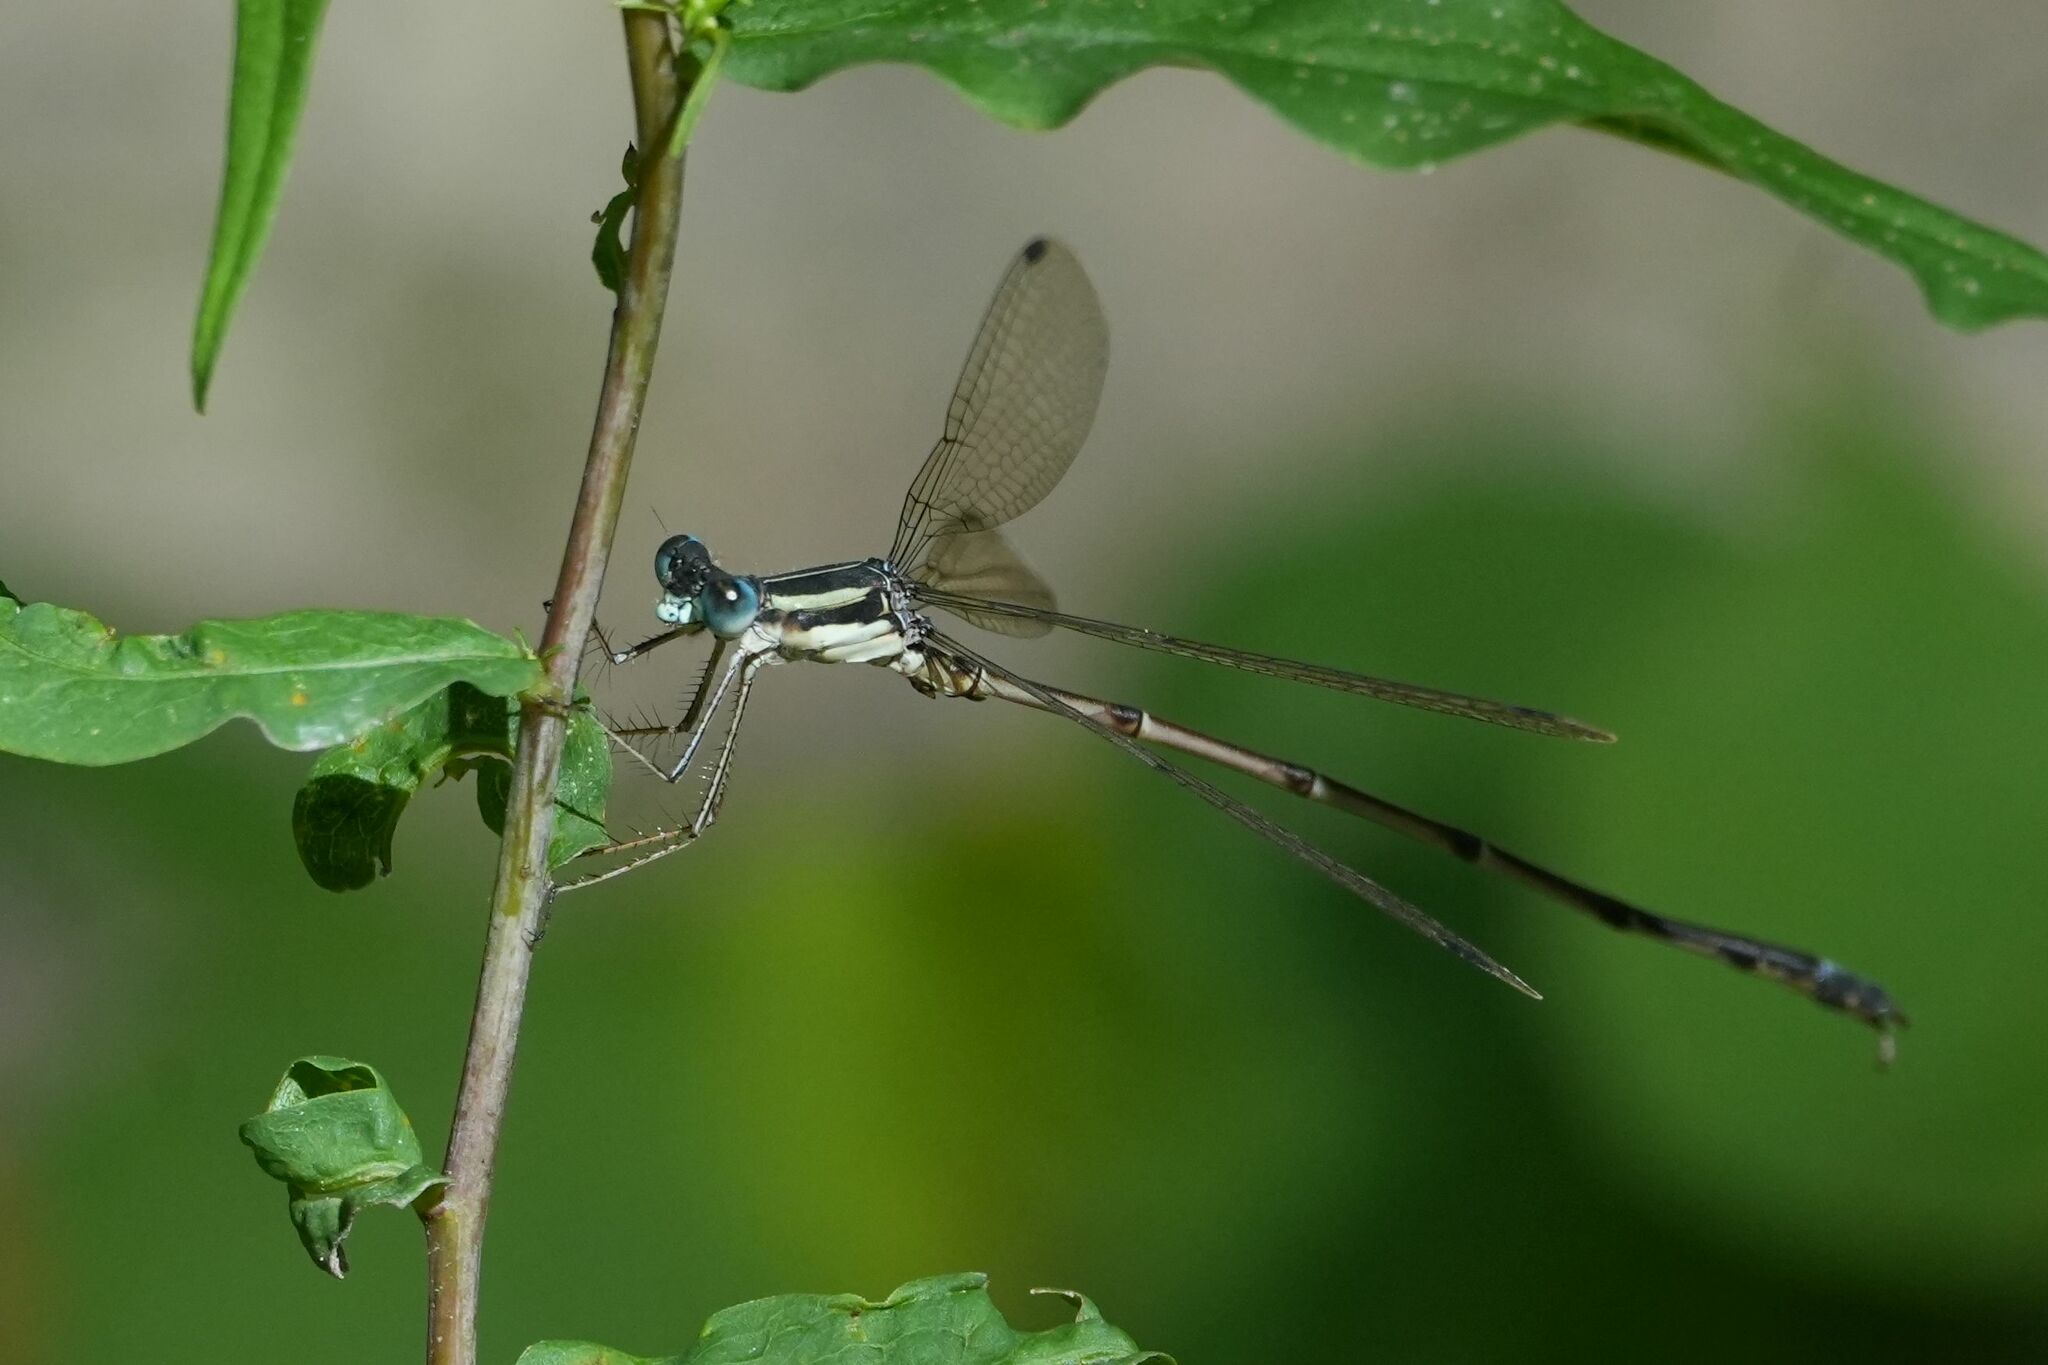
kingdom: Animalia
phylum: Arthropoda
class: Insecta
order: Odonata
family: Lestidae
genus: Lestes
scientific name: Lestes rectangularis
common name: Slender spreadwing
